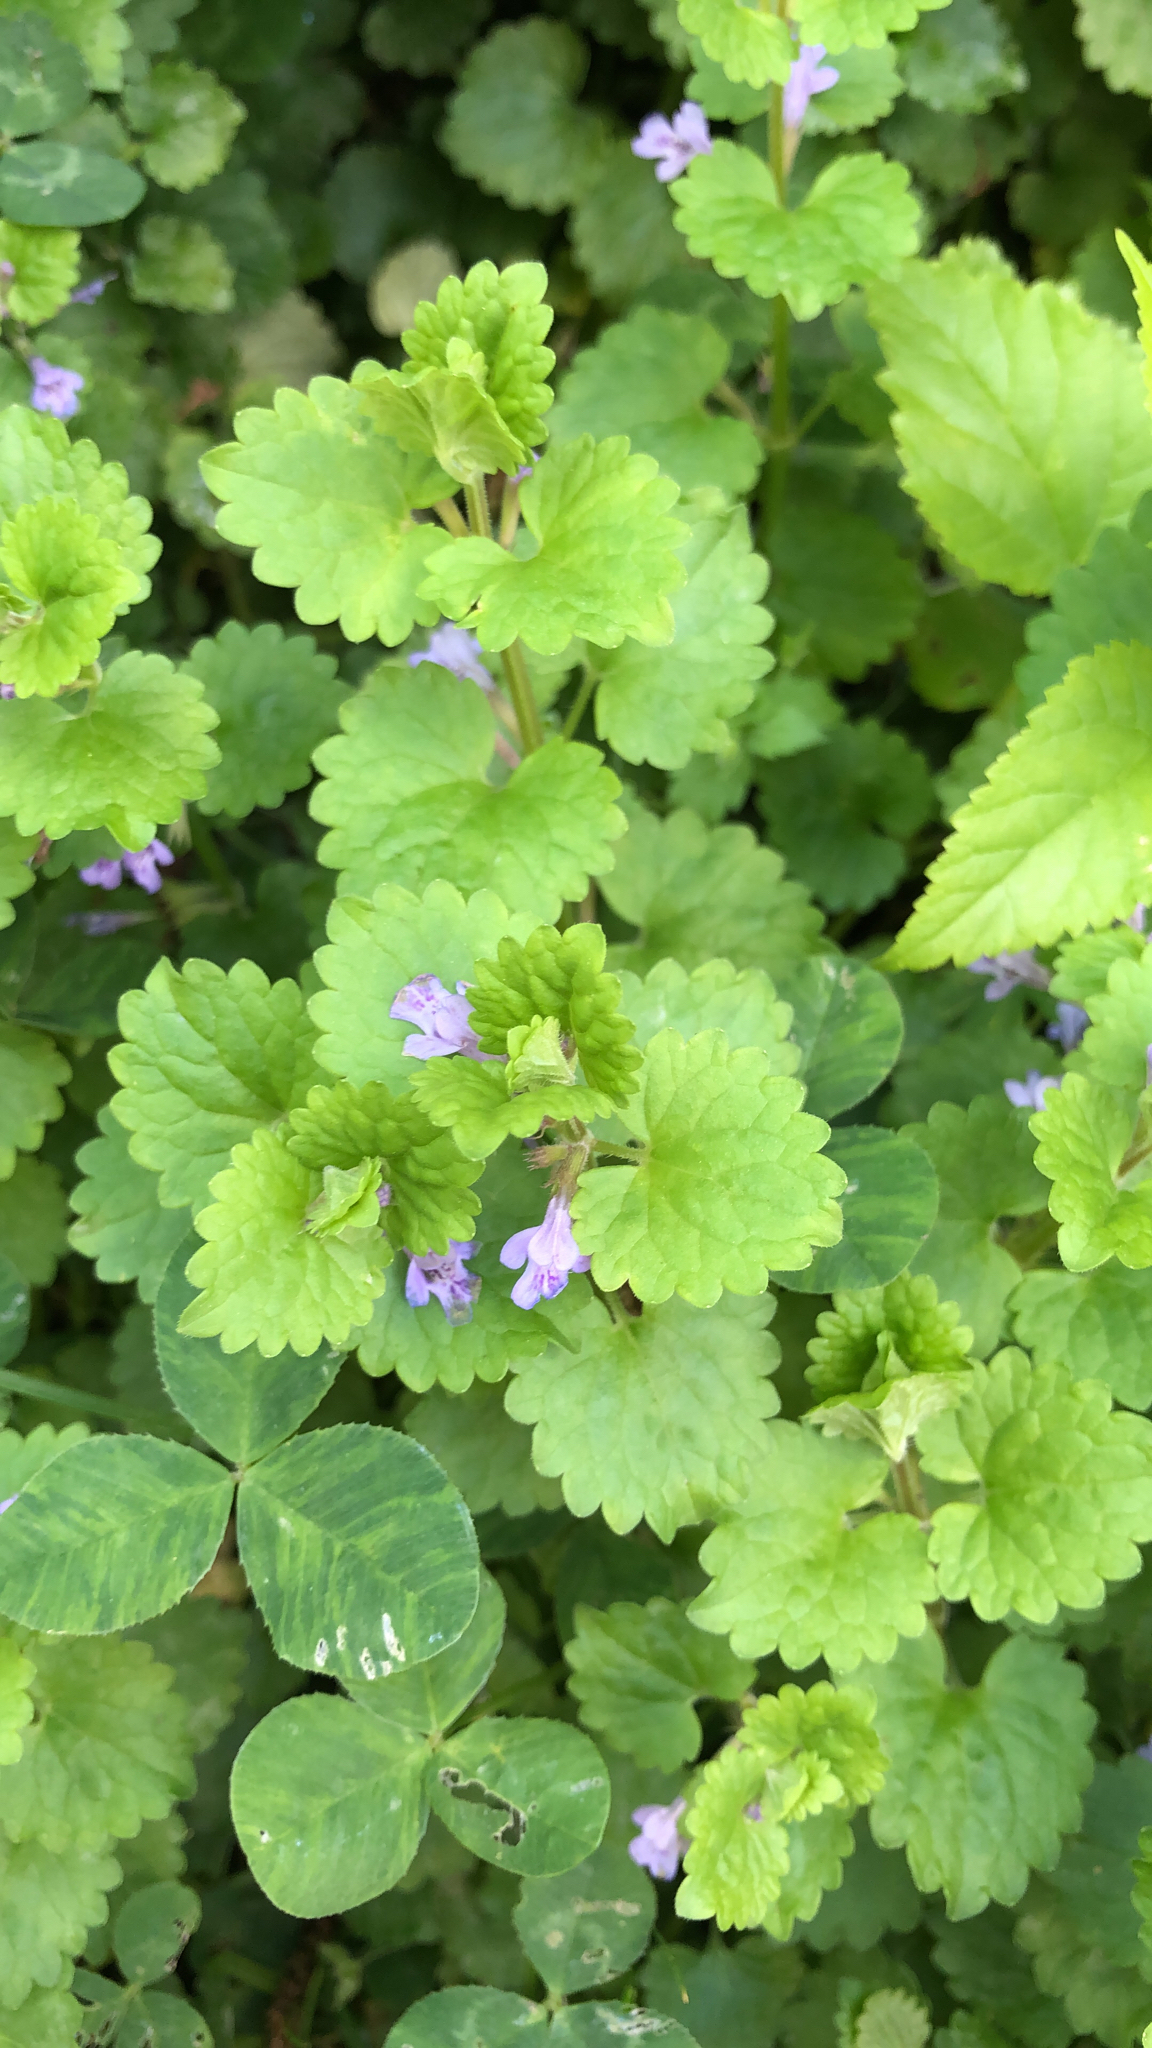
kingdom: Plantae
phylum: Tracheophyta
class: Magnoliopsida
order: Lamiales
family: Lamiaceae
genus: Glechoma
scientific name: Glechoma hederacea
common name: Ground ivy
